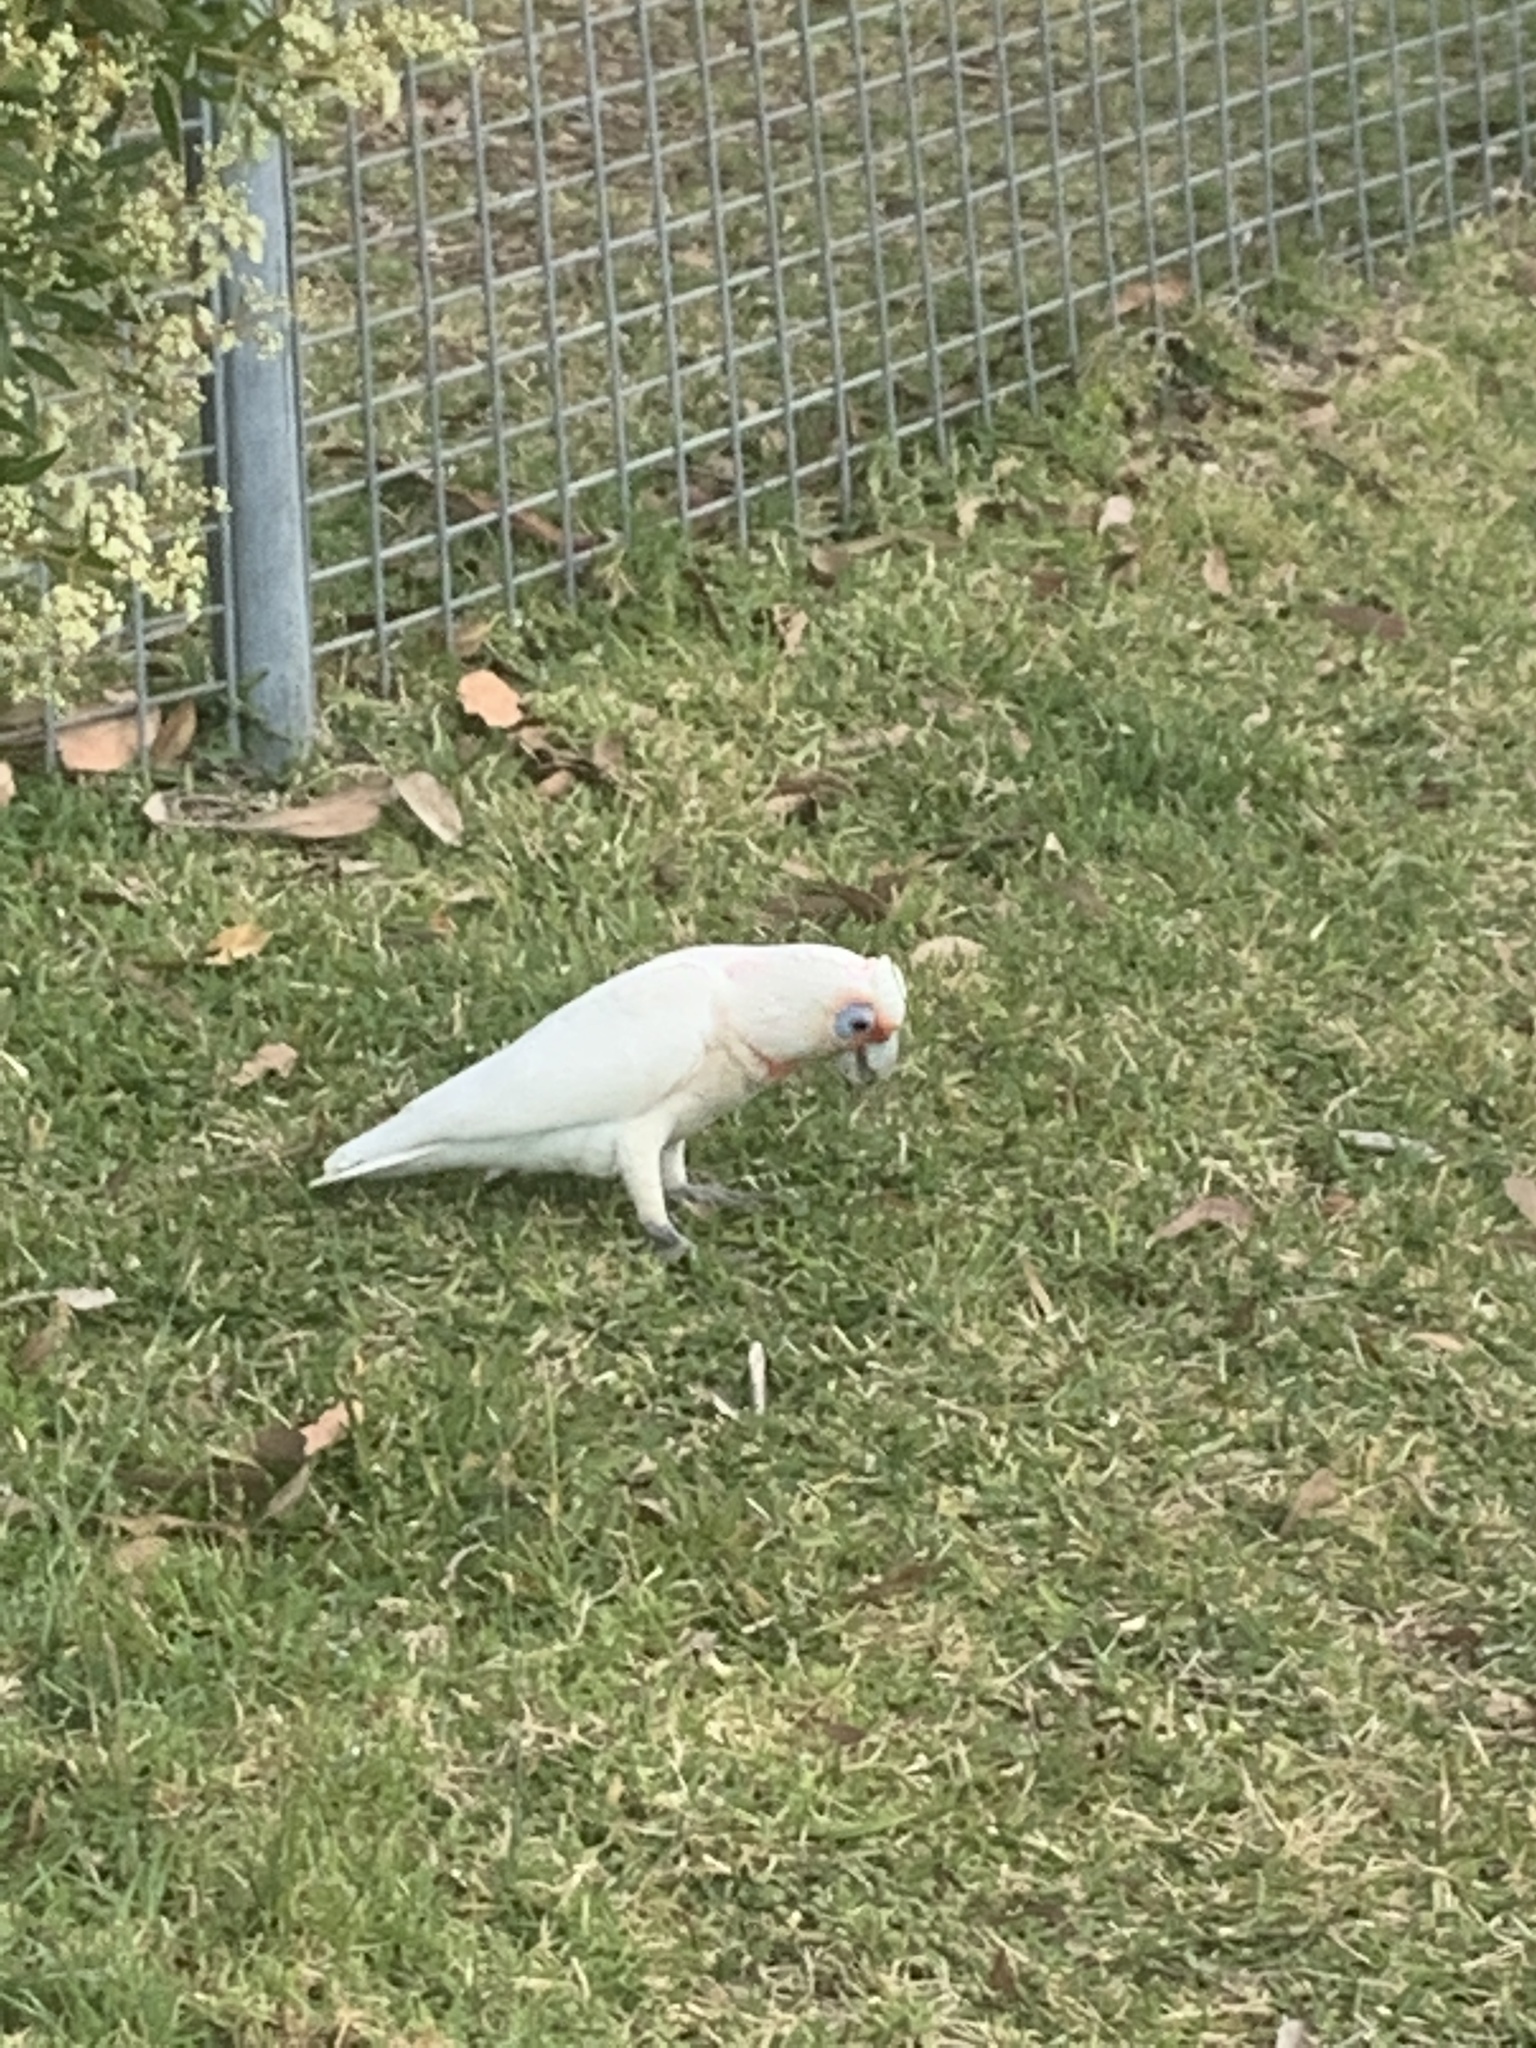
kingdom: Animalia
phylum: Chordata
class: Aves
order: Psittaciformes
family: Psittacidae
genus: Cacatua
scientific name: Cacatua sanguinea
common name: Little corella
